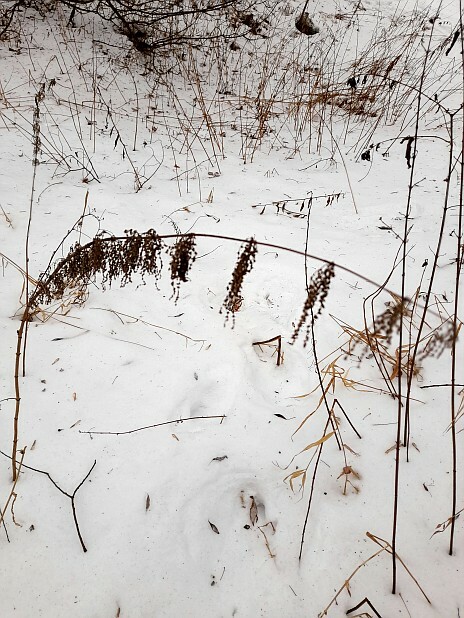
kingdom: Plantae
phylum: Tracheophyta
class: Magnoliopsida
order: Rosales
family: Urticaceae
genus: Urtica
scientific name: Urtica dioica
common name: Common nettle
